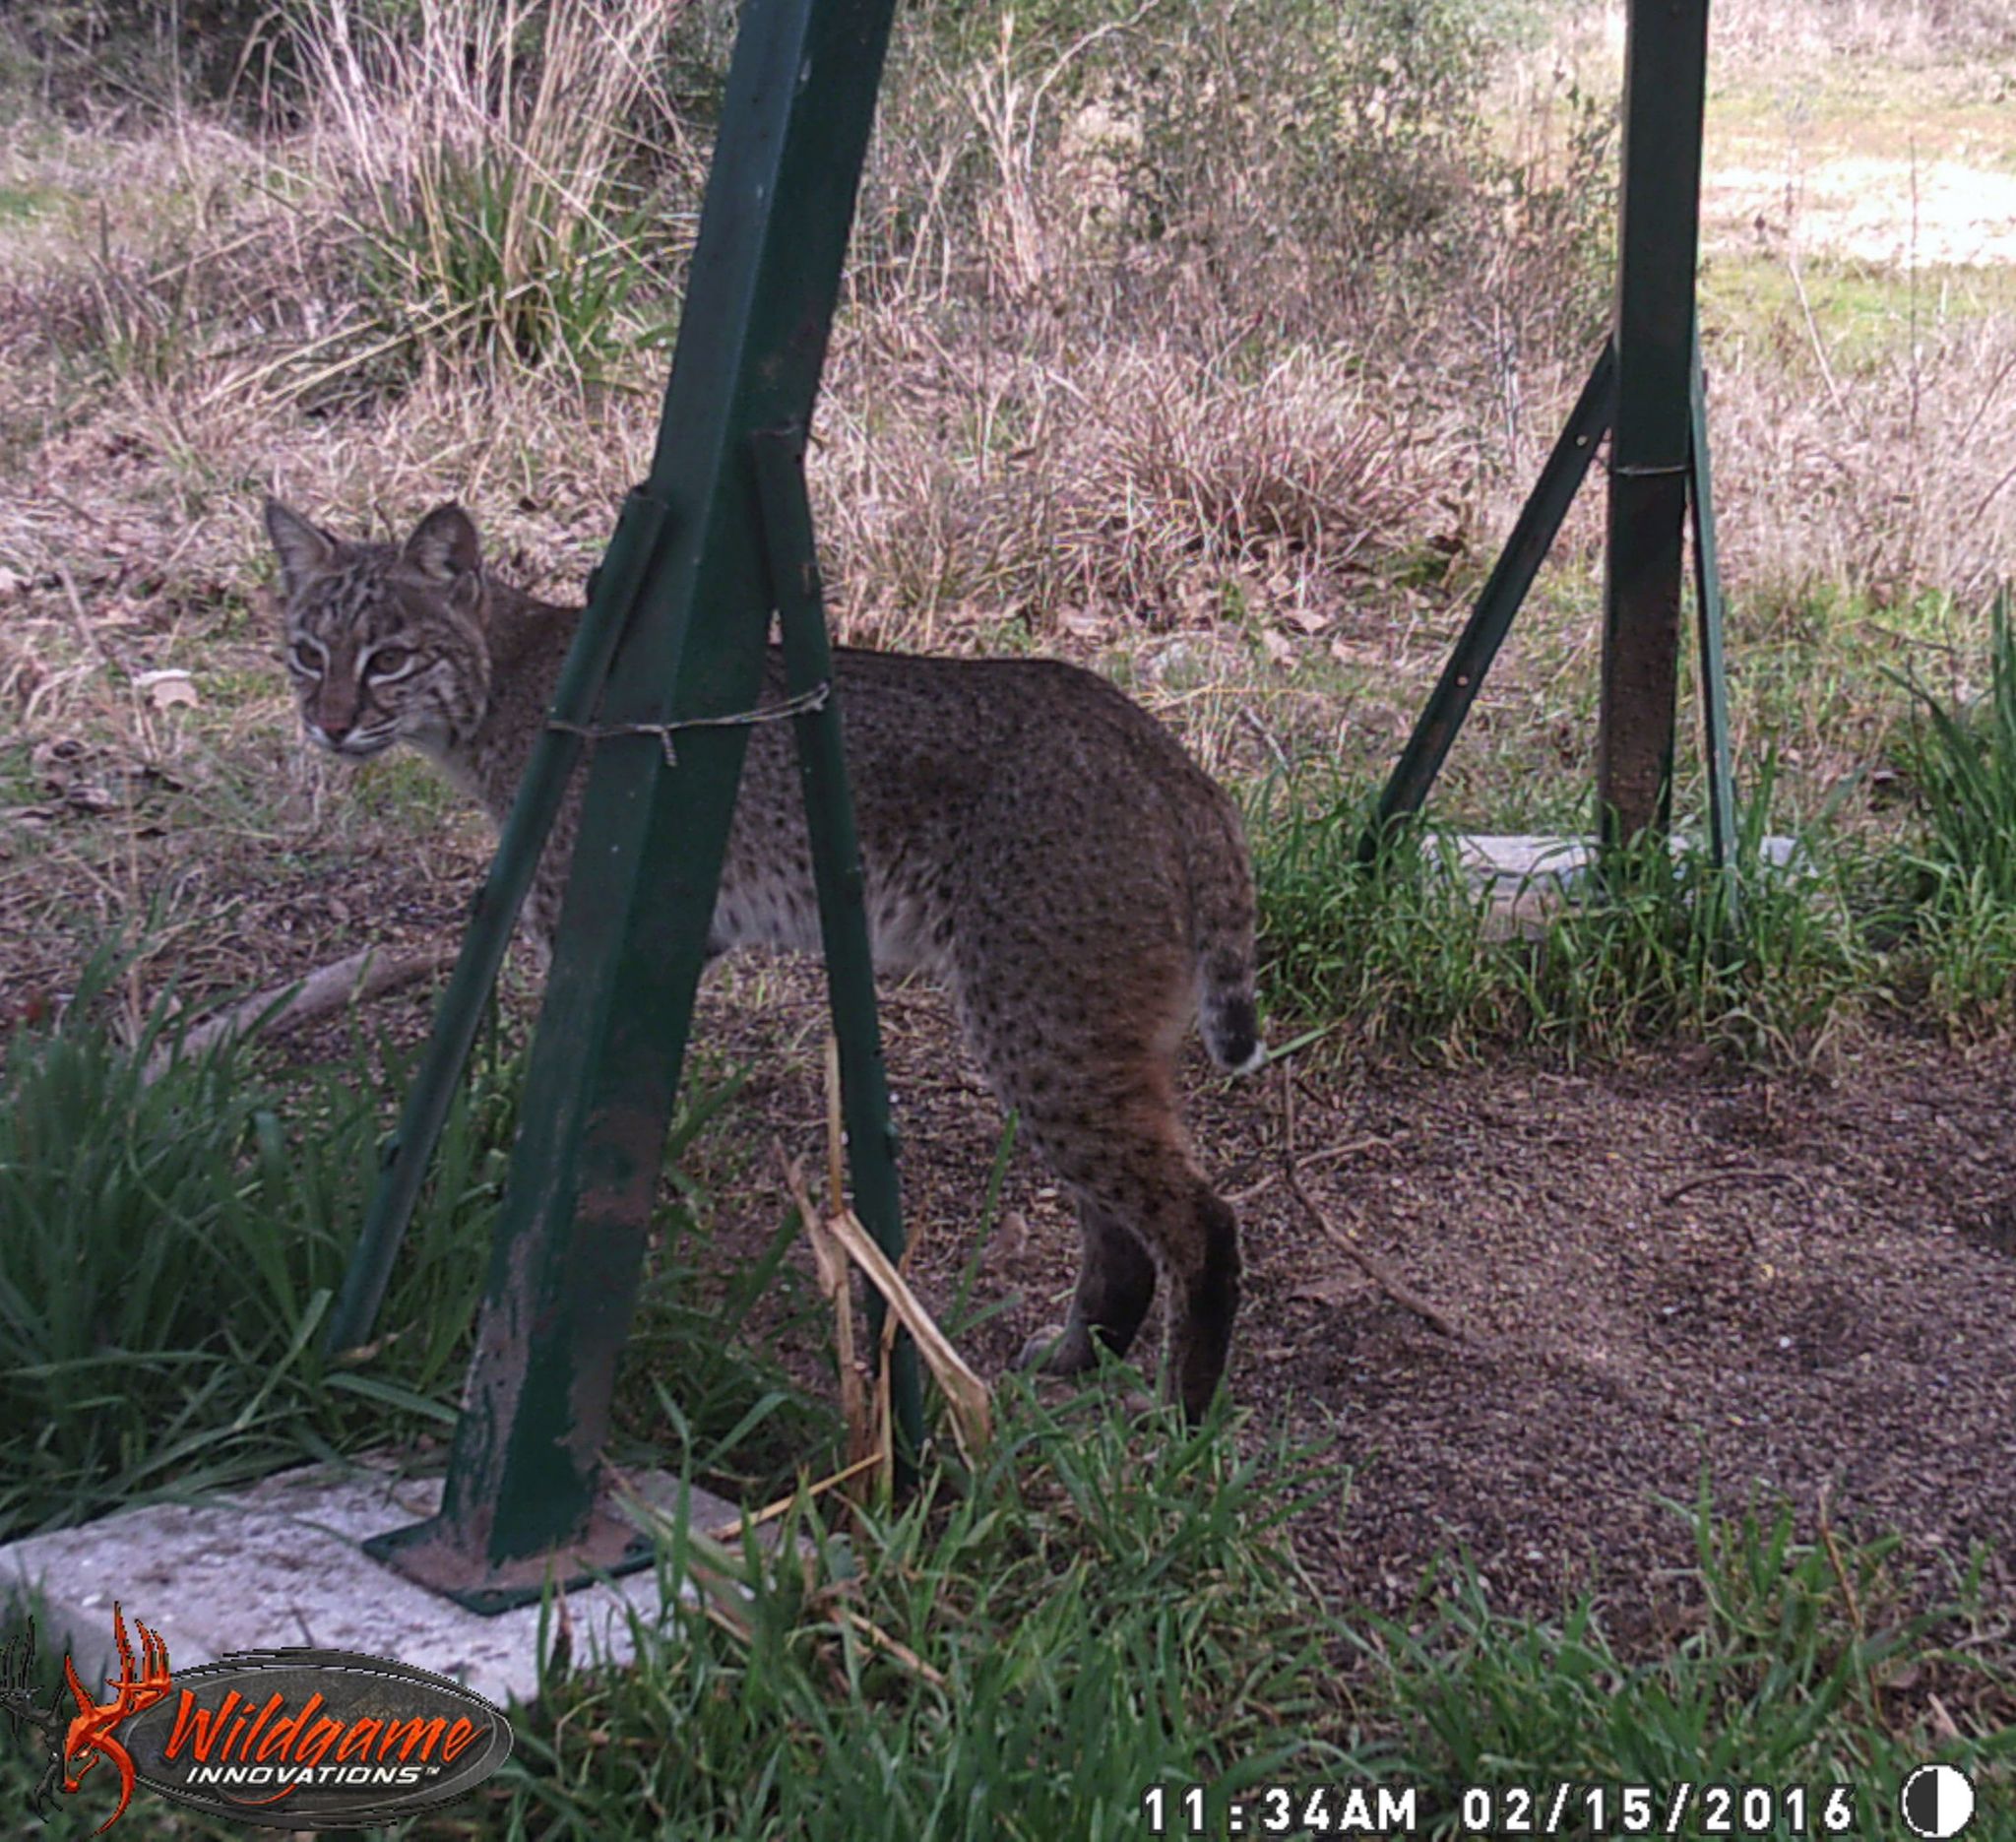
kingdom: Animalia
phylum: Chordata
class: Mammalia
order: Carnivora
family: Felidae
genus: Lynx
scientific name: Lynx rufus
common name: Bobcat
